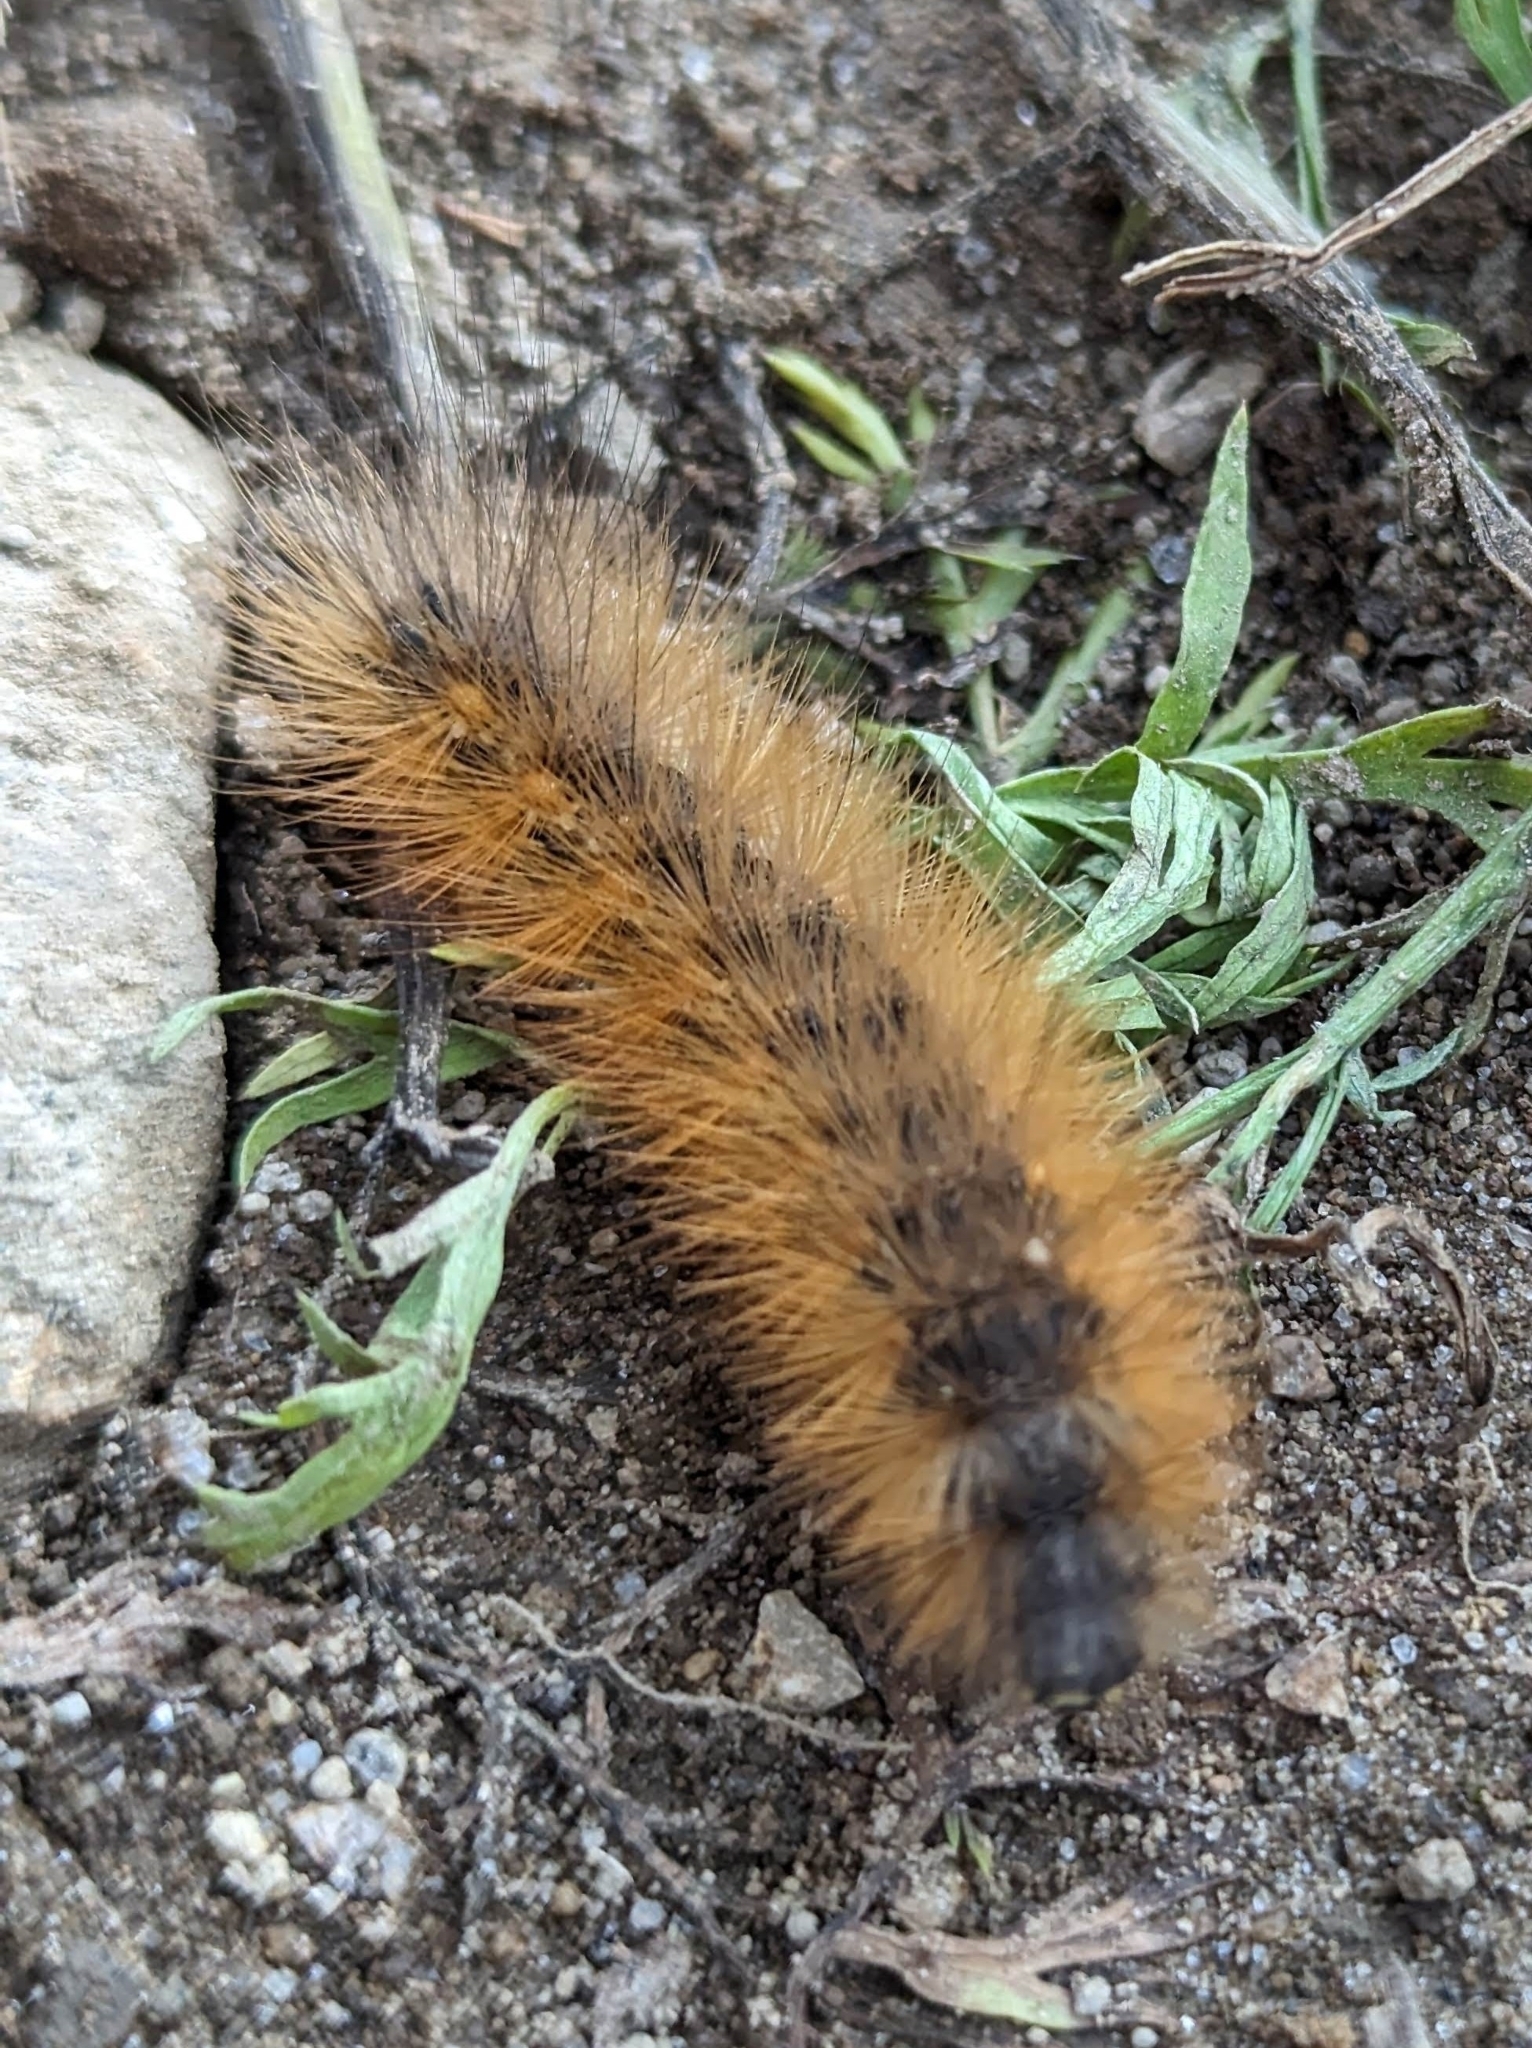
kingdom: Animalia
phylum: Arthropoda
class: Insecta
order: Lepidoptera
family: Erebidae
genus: Estigmene
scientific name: Estigmene acrea
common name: Salt marsh moth
